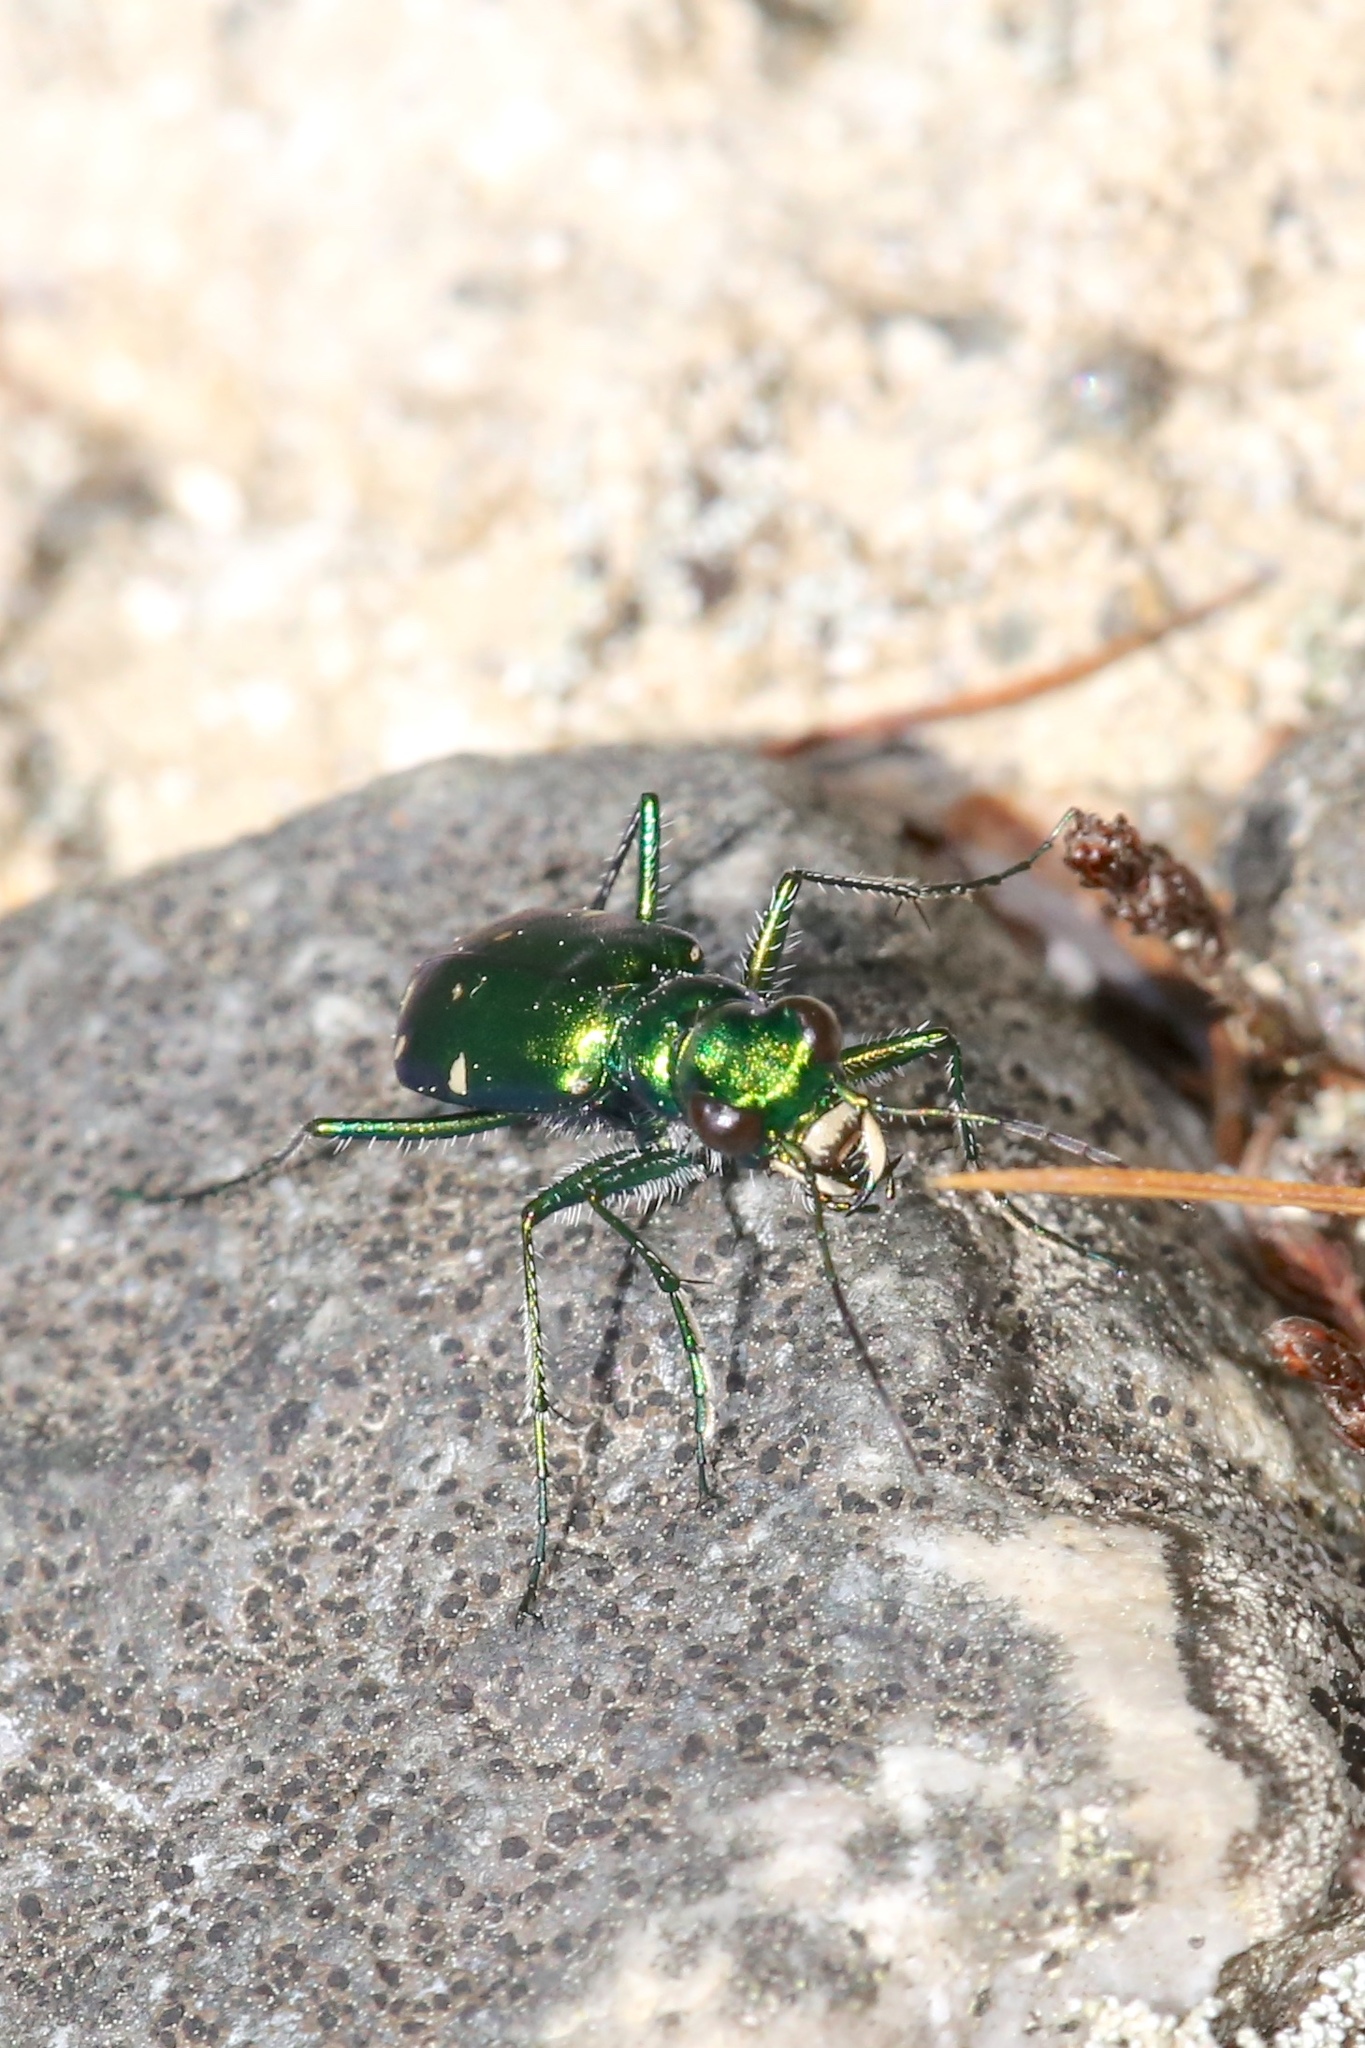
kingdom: Animalia
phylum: Arthropoda
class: Insecta
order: Coleoptera
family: Carabidae
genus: Cicindela
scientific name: Cicindela sexguttata
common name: Six-spotted tiger beetle
